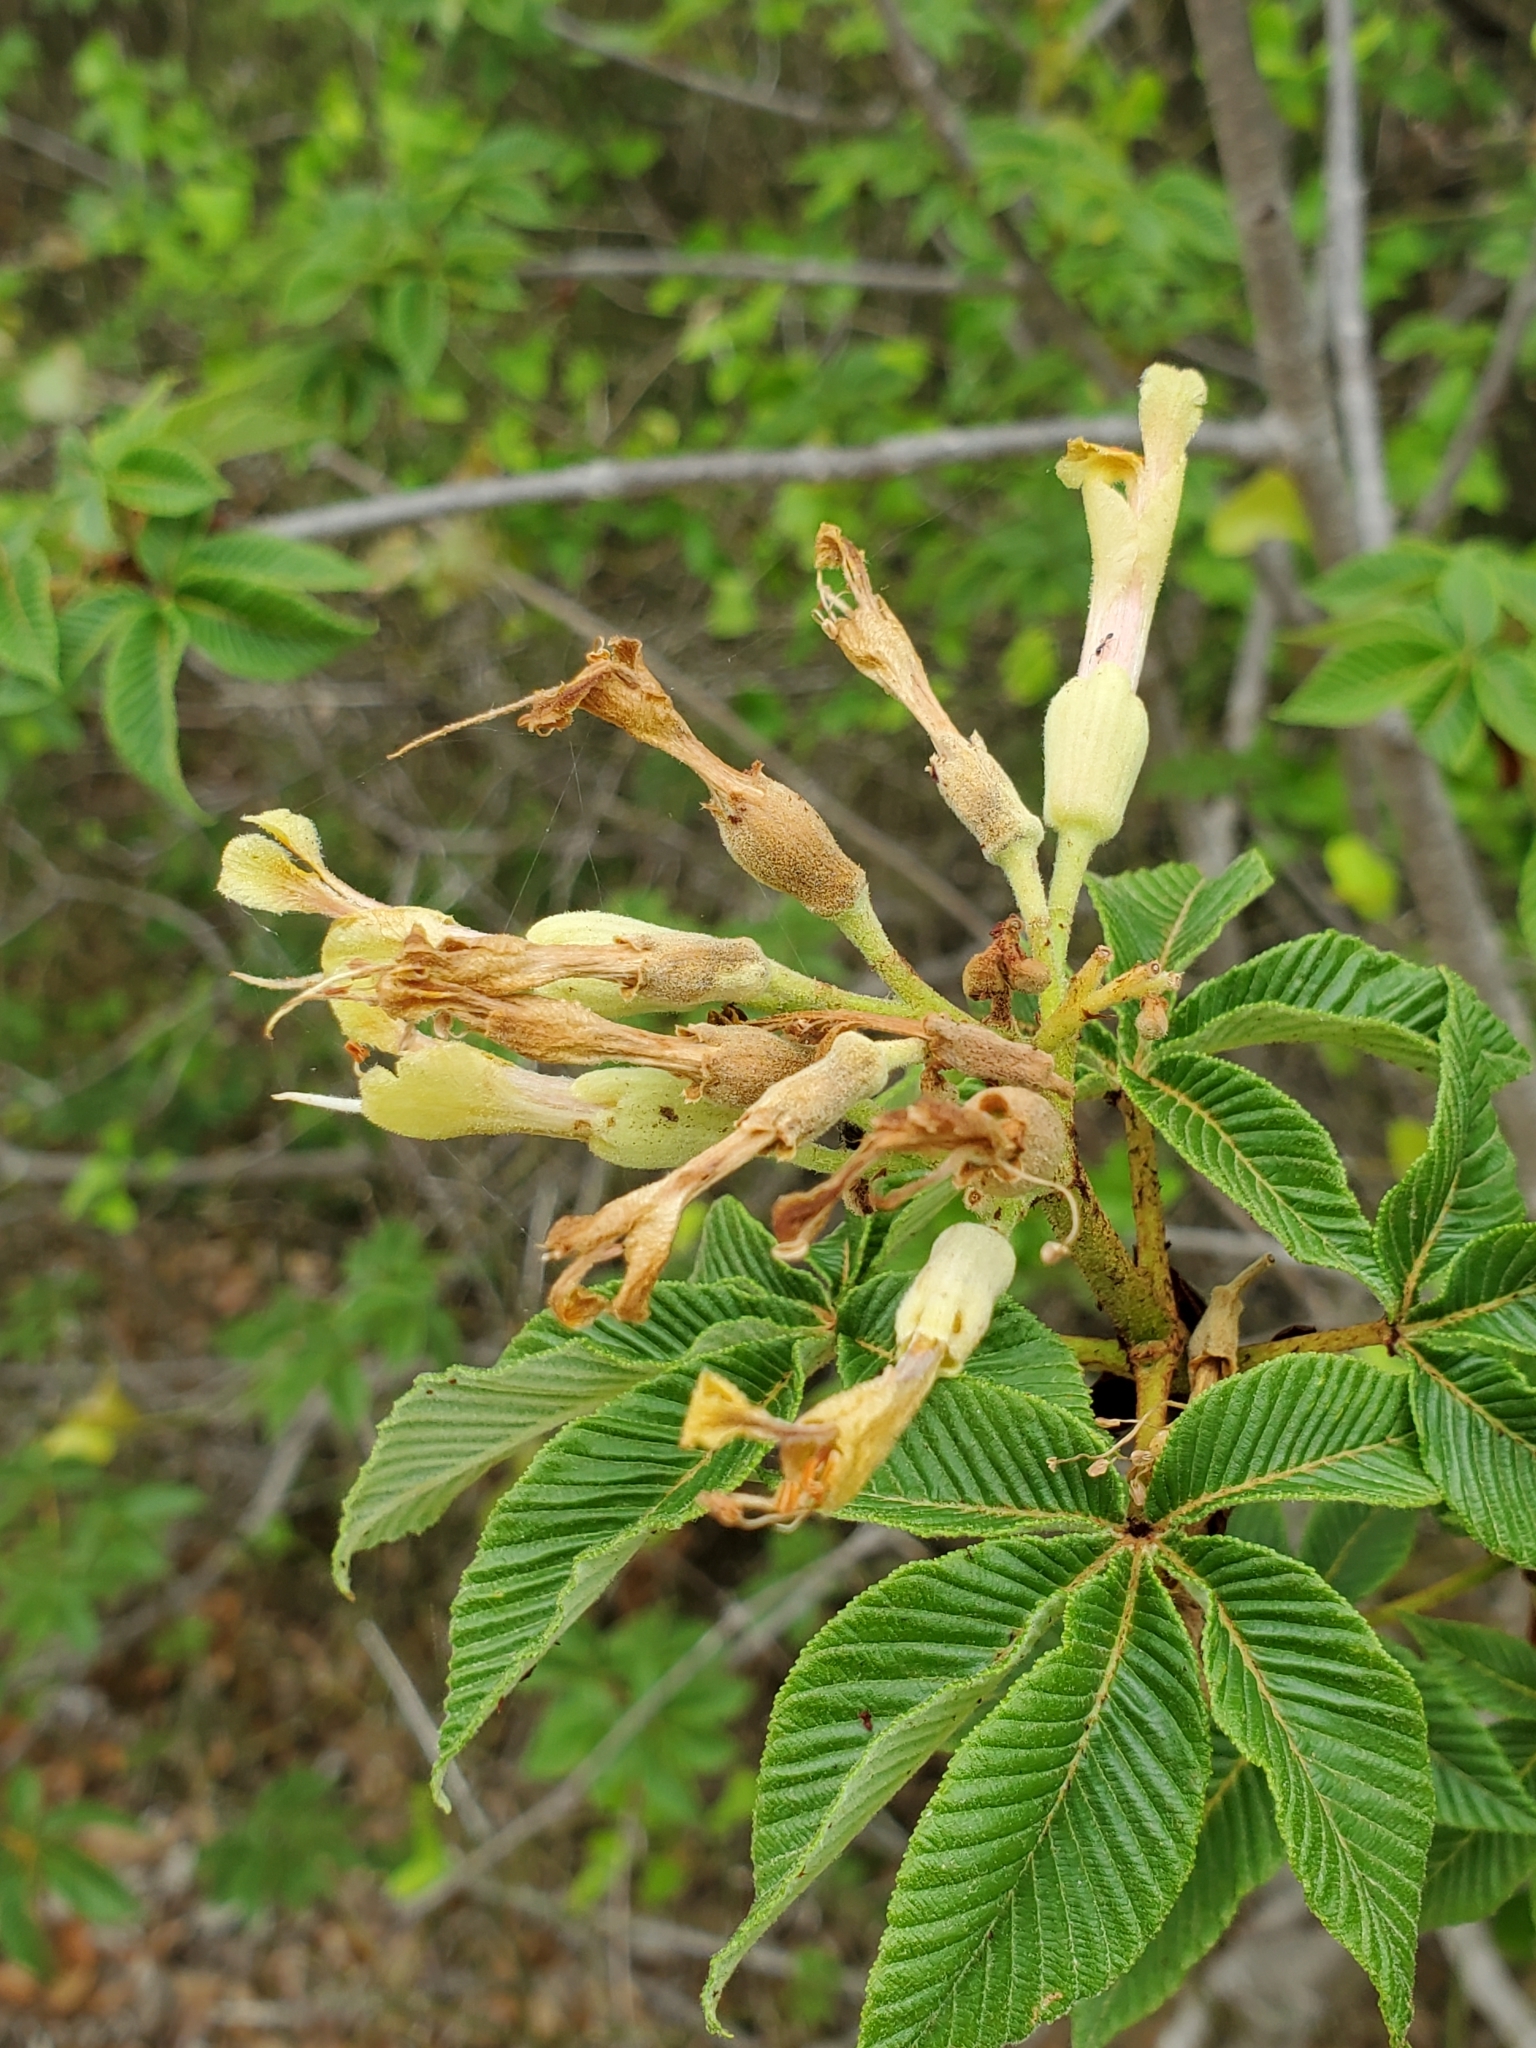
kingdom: Plantae
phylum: Tracheophyta
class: Magnoliopsida
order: Sapindales
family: Sapindaceae
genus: Aesculus
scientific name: Aesculus pavia
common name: Red buckeye
